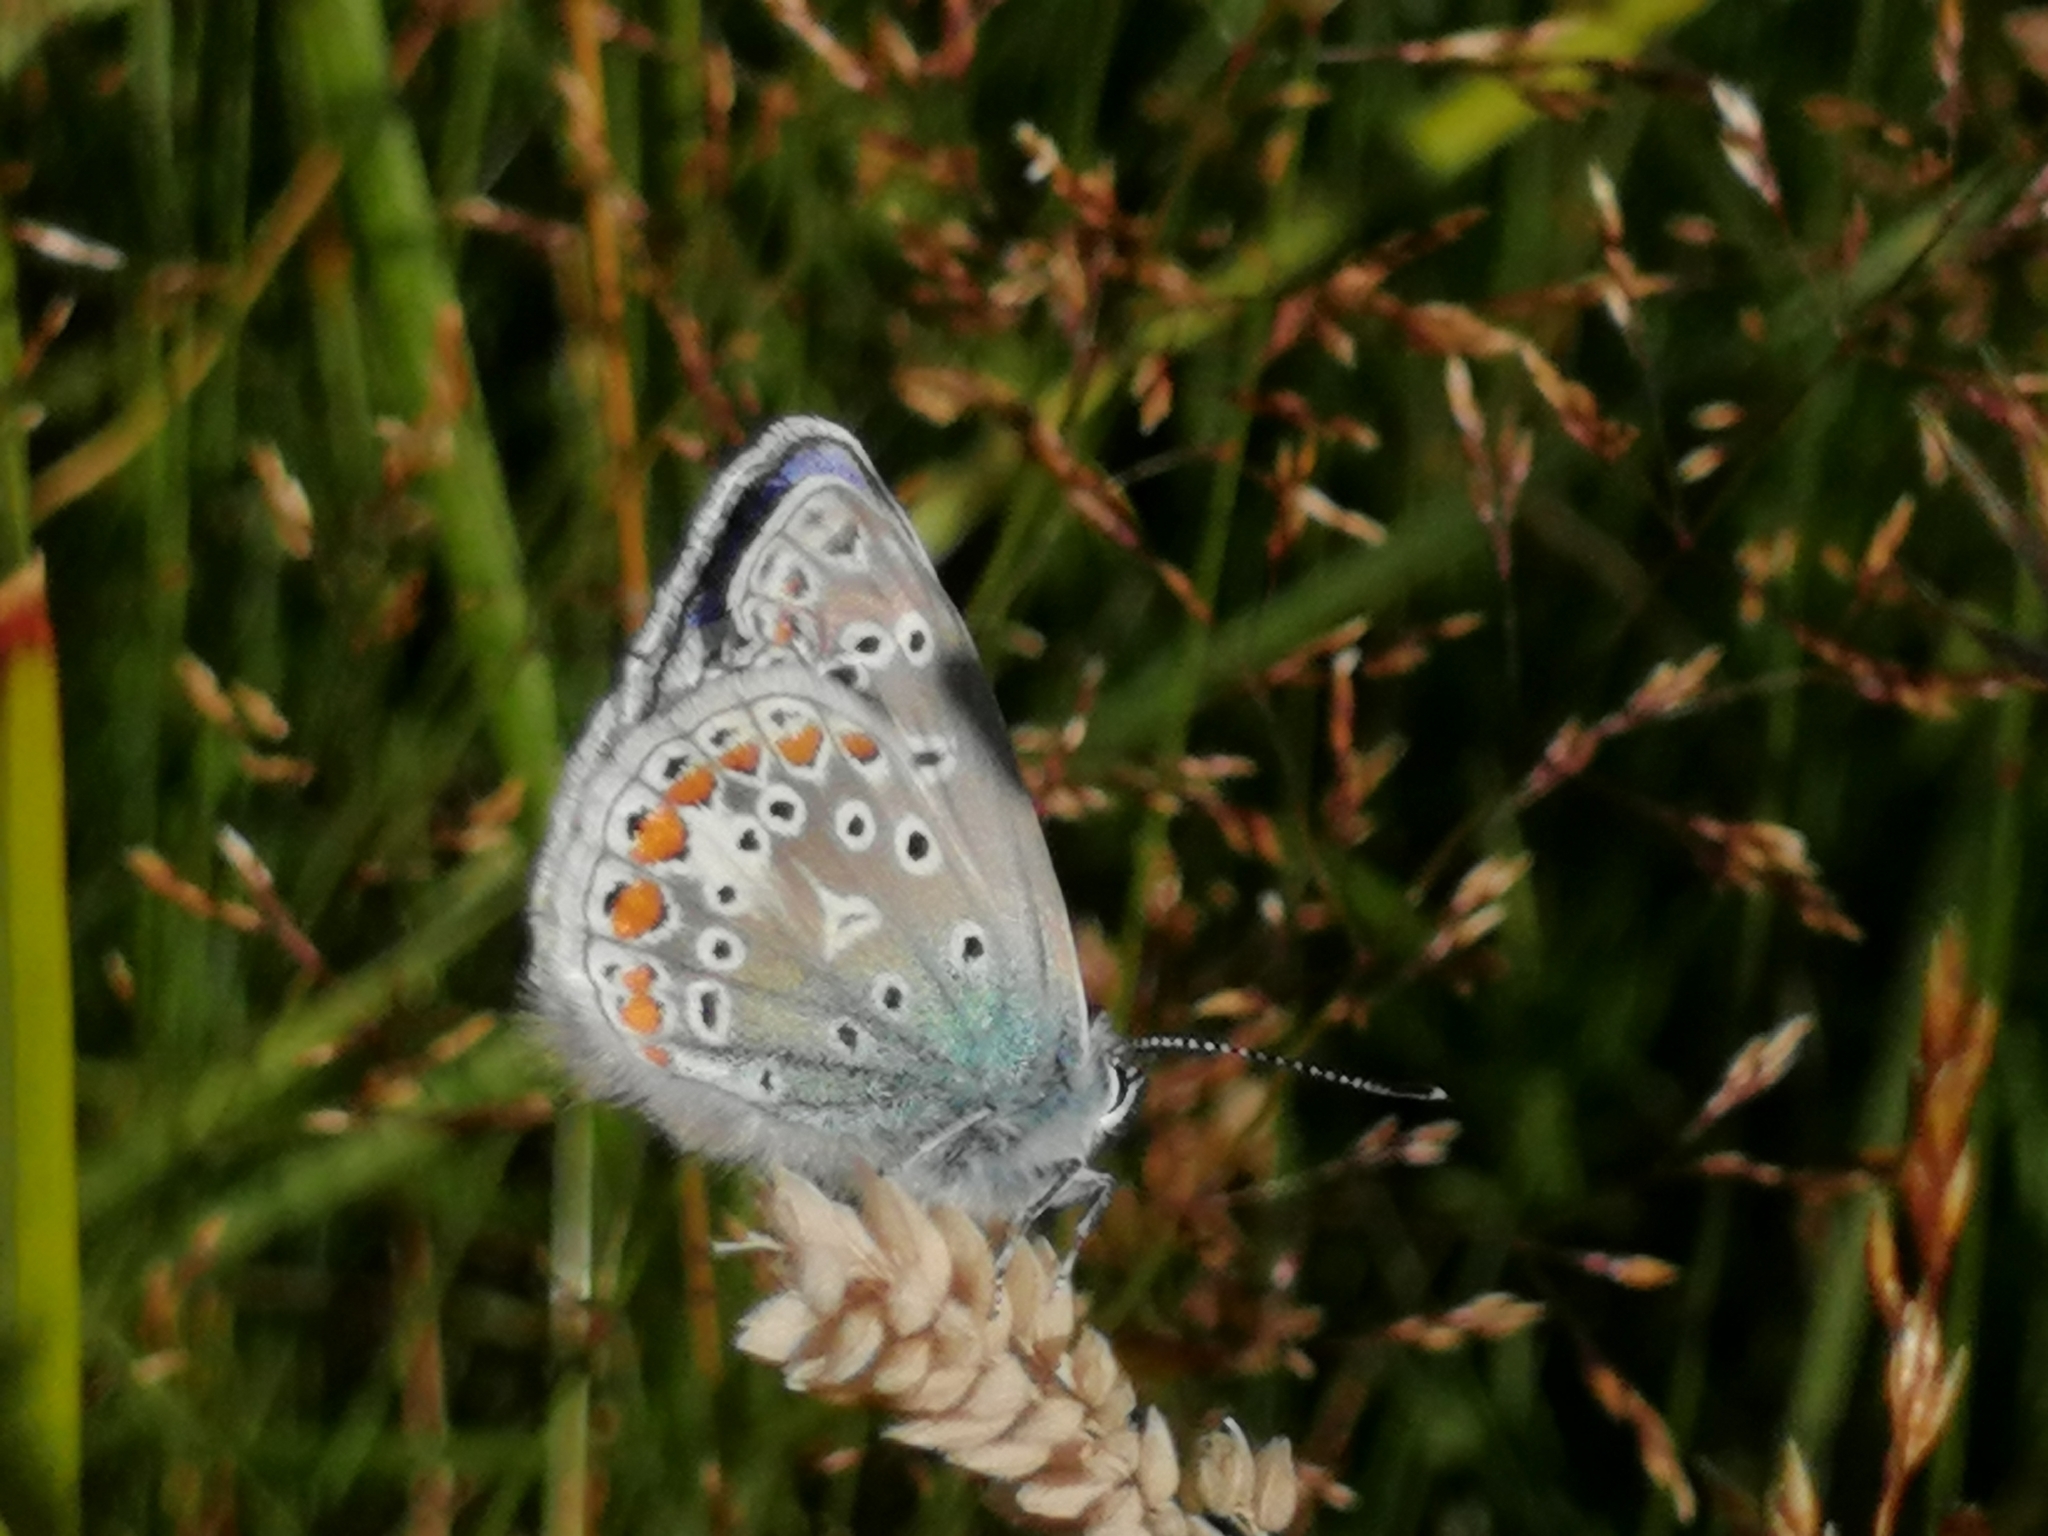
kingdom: Animalia
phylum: Arthropoda
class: Insecta
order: Lepidoptera
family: Lycaenidae
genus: Polyommatus
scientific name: Polyommatus icarus
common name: Common blue
